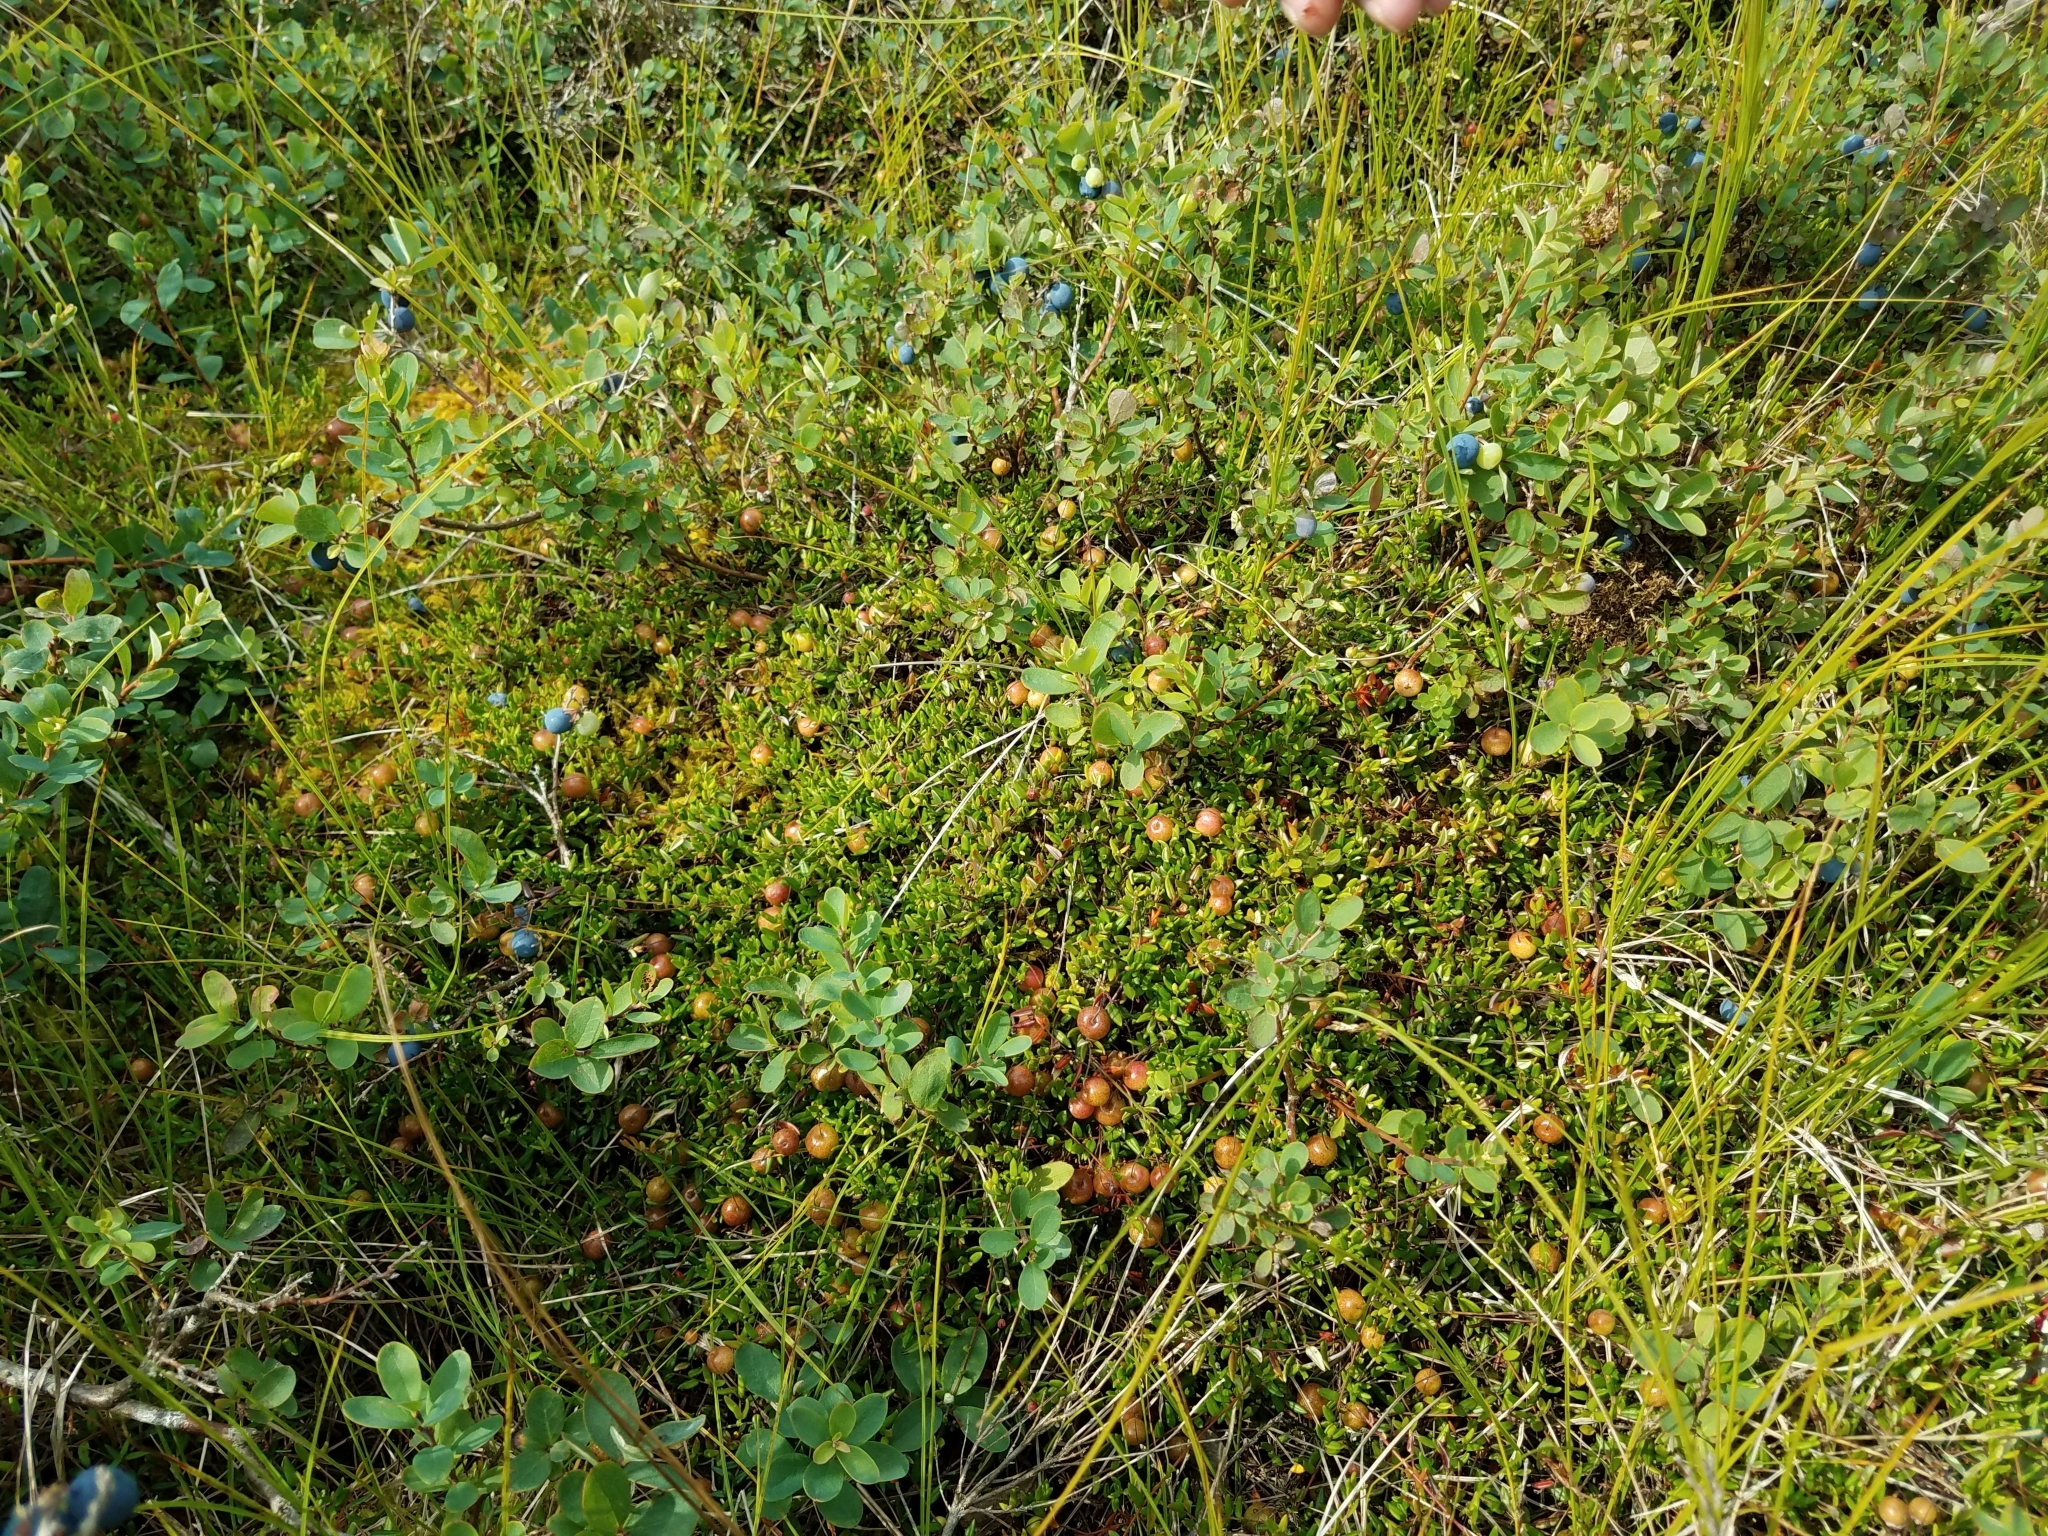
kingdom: Plantae
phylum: Tracheophyta
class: Magnoliopsida
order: Ericales
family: Ericaceae
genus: Vaccinium
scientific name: Vaccinium uliginosum
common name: Bog bilberry
